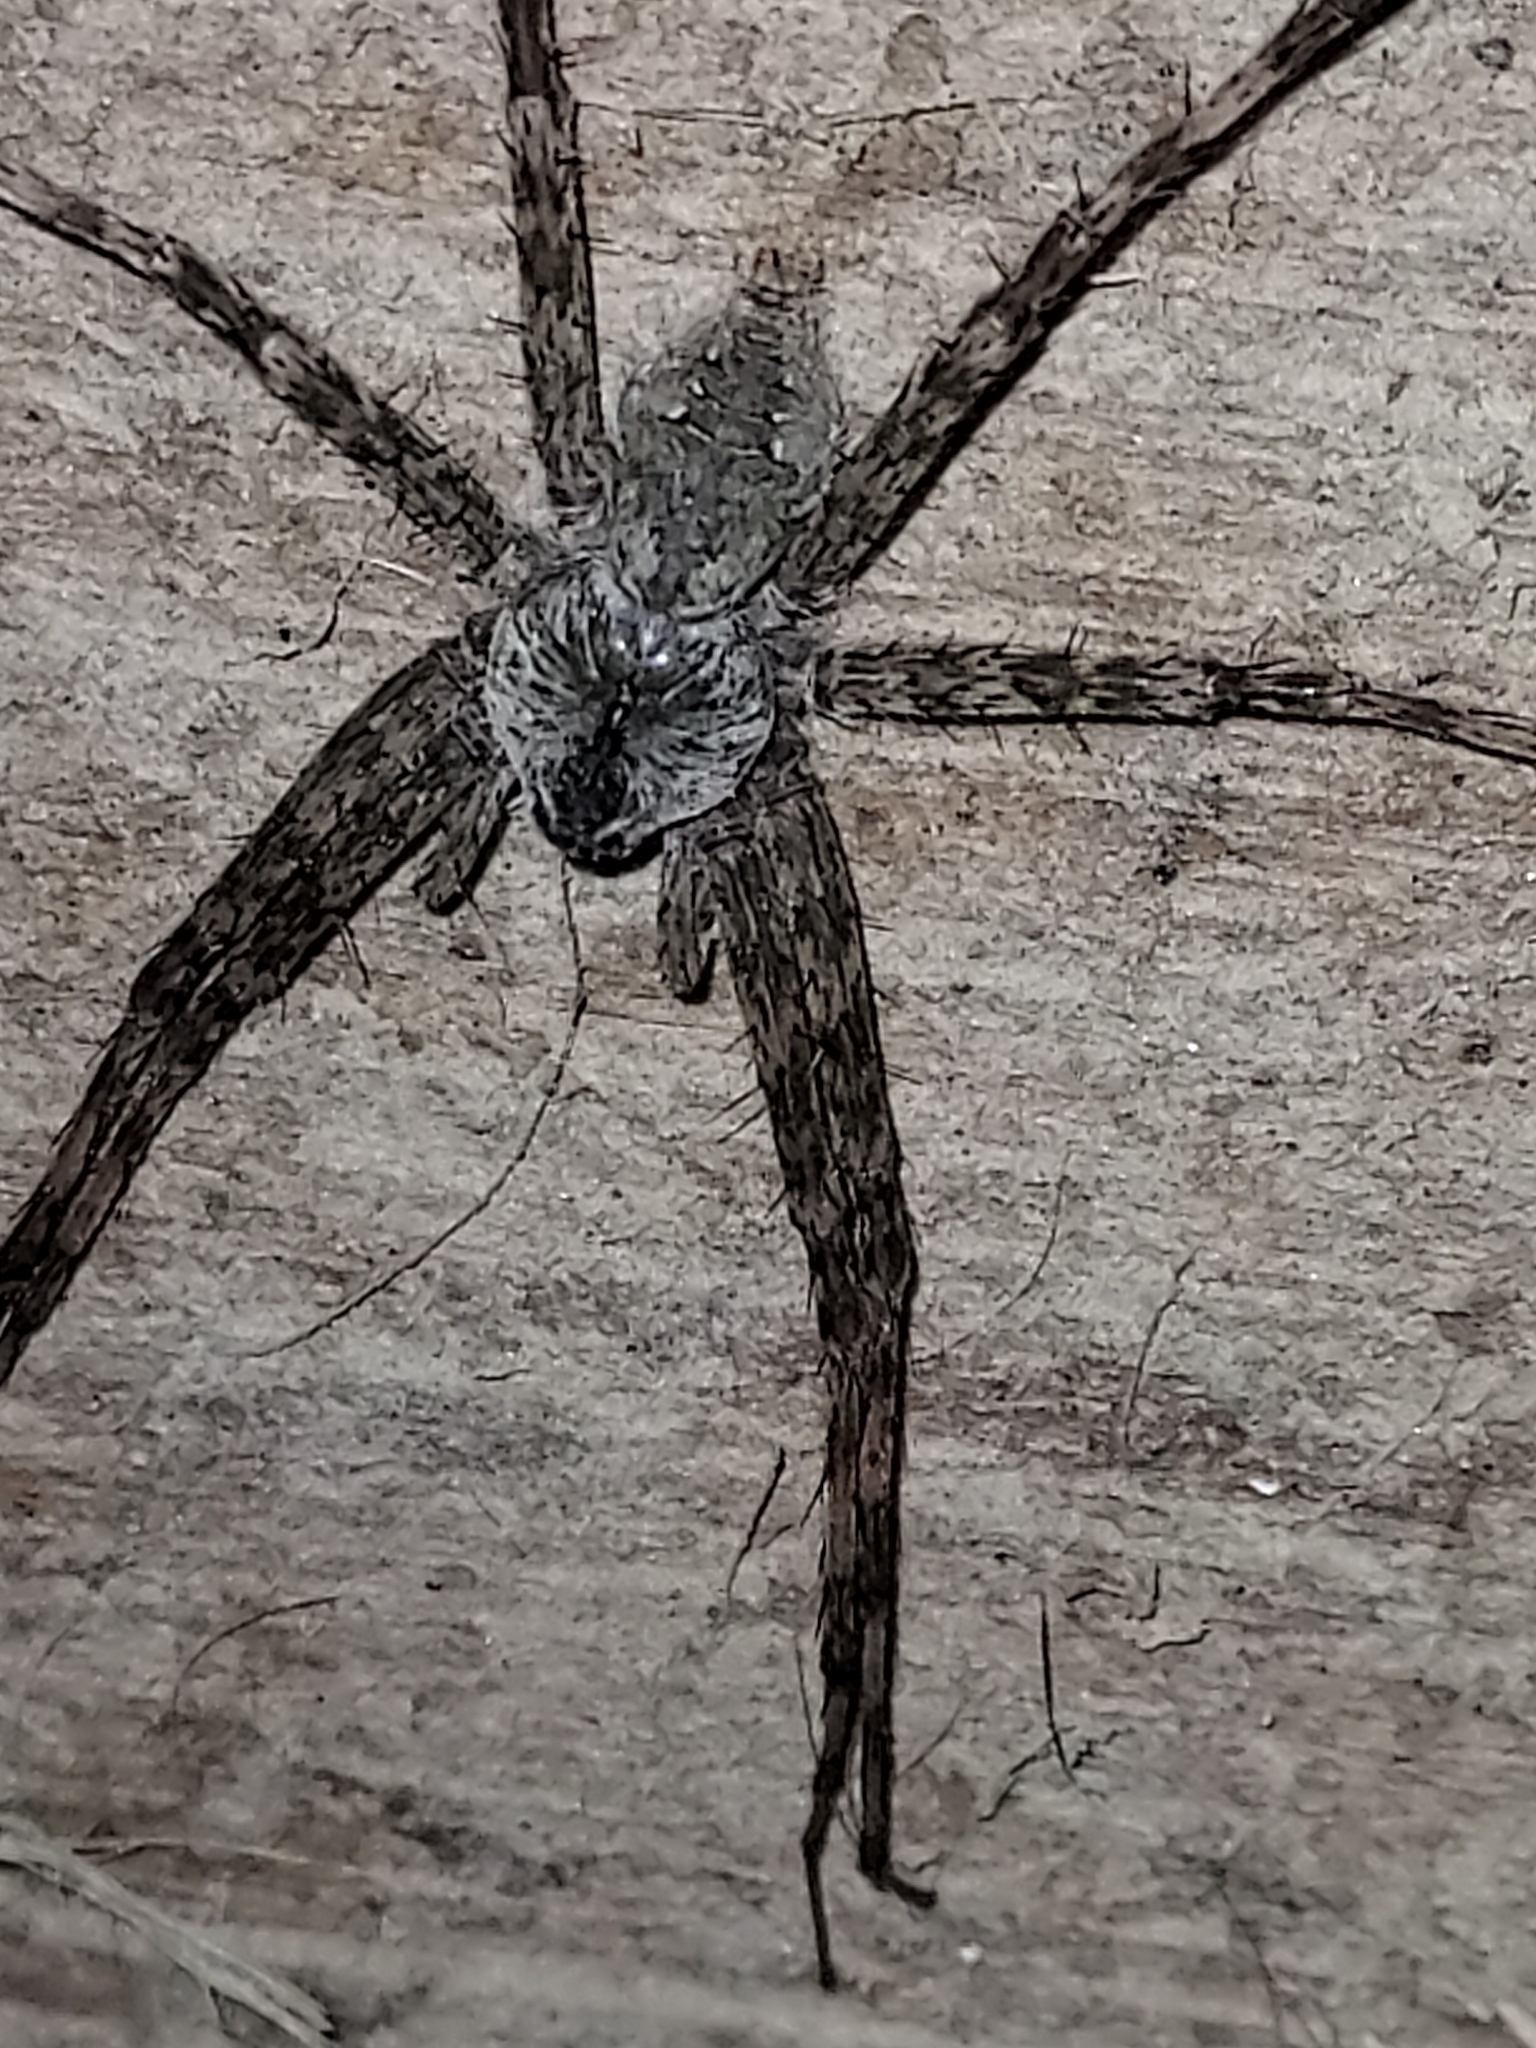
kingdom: Animalia
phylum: Arthropoda
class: Arachnida
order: Araneae
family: Pisauridae
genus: Dolomedes
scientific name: Dolomedes albineus
